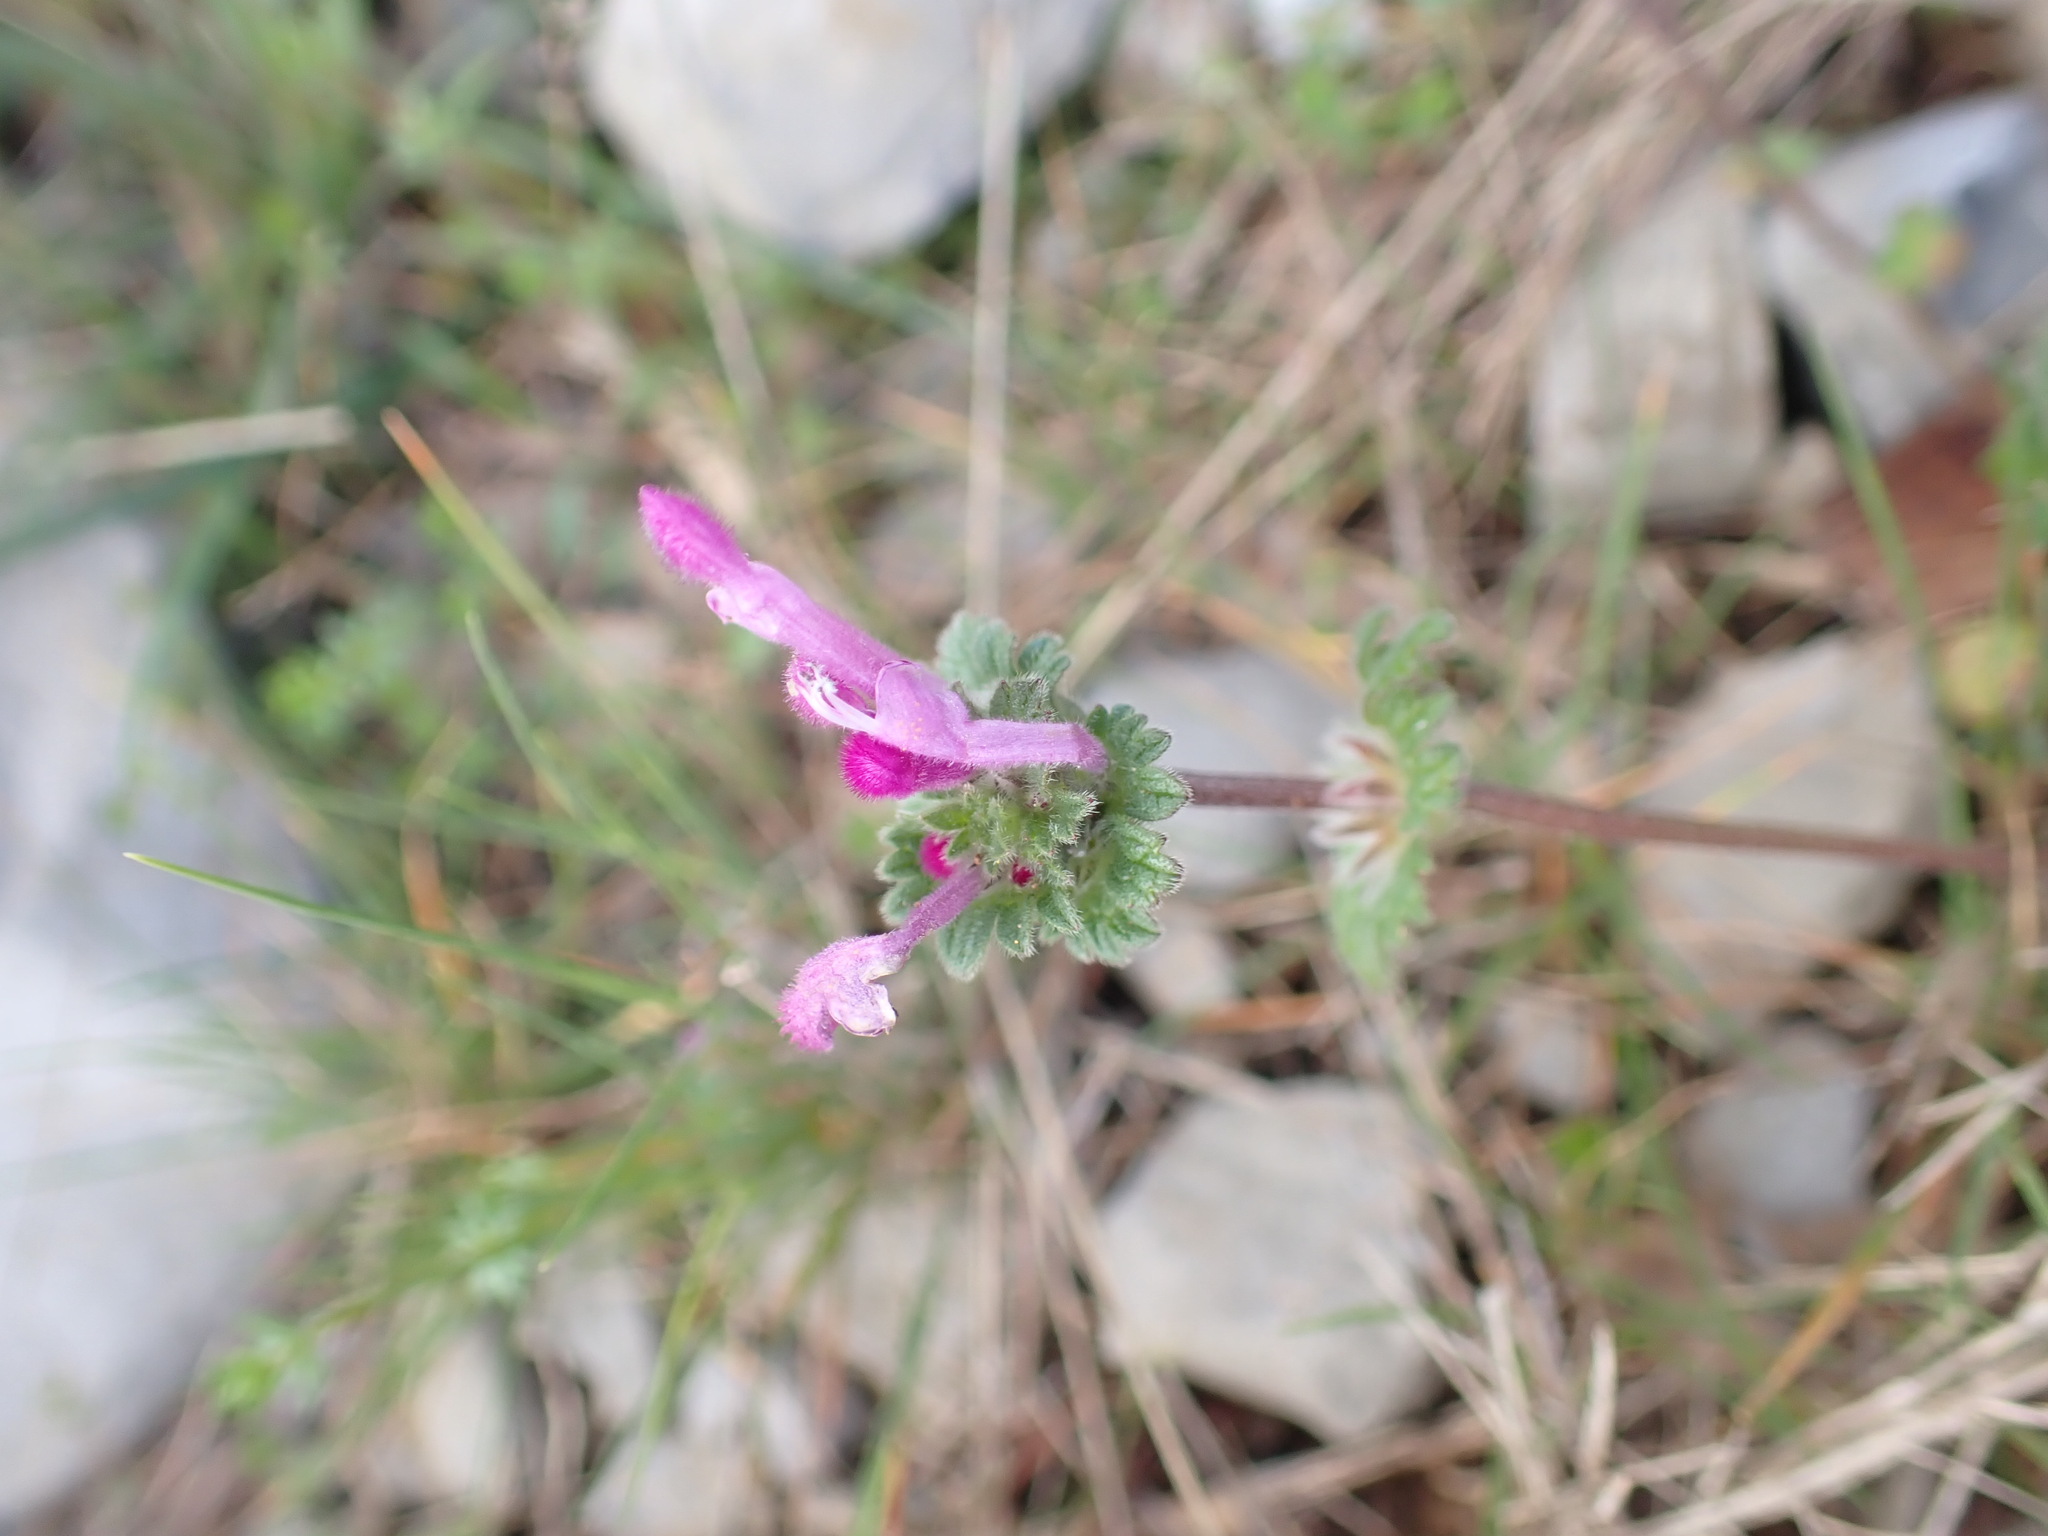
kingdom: Plantae
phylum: Tracheophyta
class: Magnoliopsida
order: Lamiales
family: Lamiaceae
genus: Lamium
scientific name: Lamium amplexicaule
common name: Henbit dead-nettle
